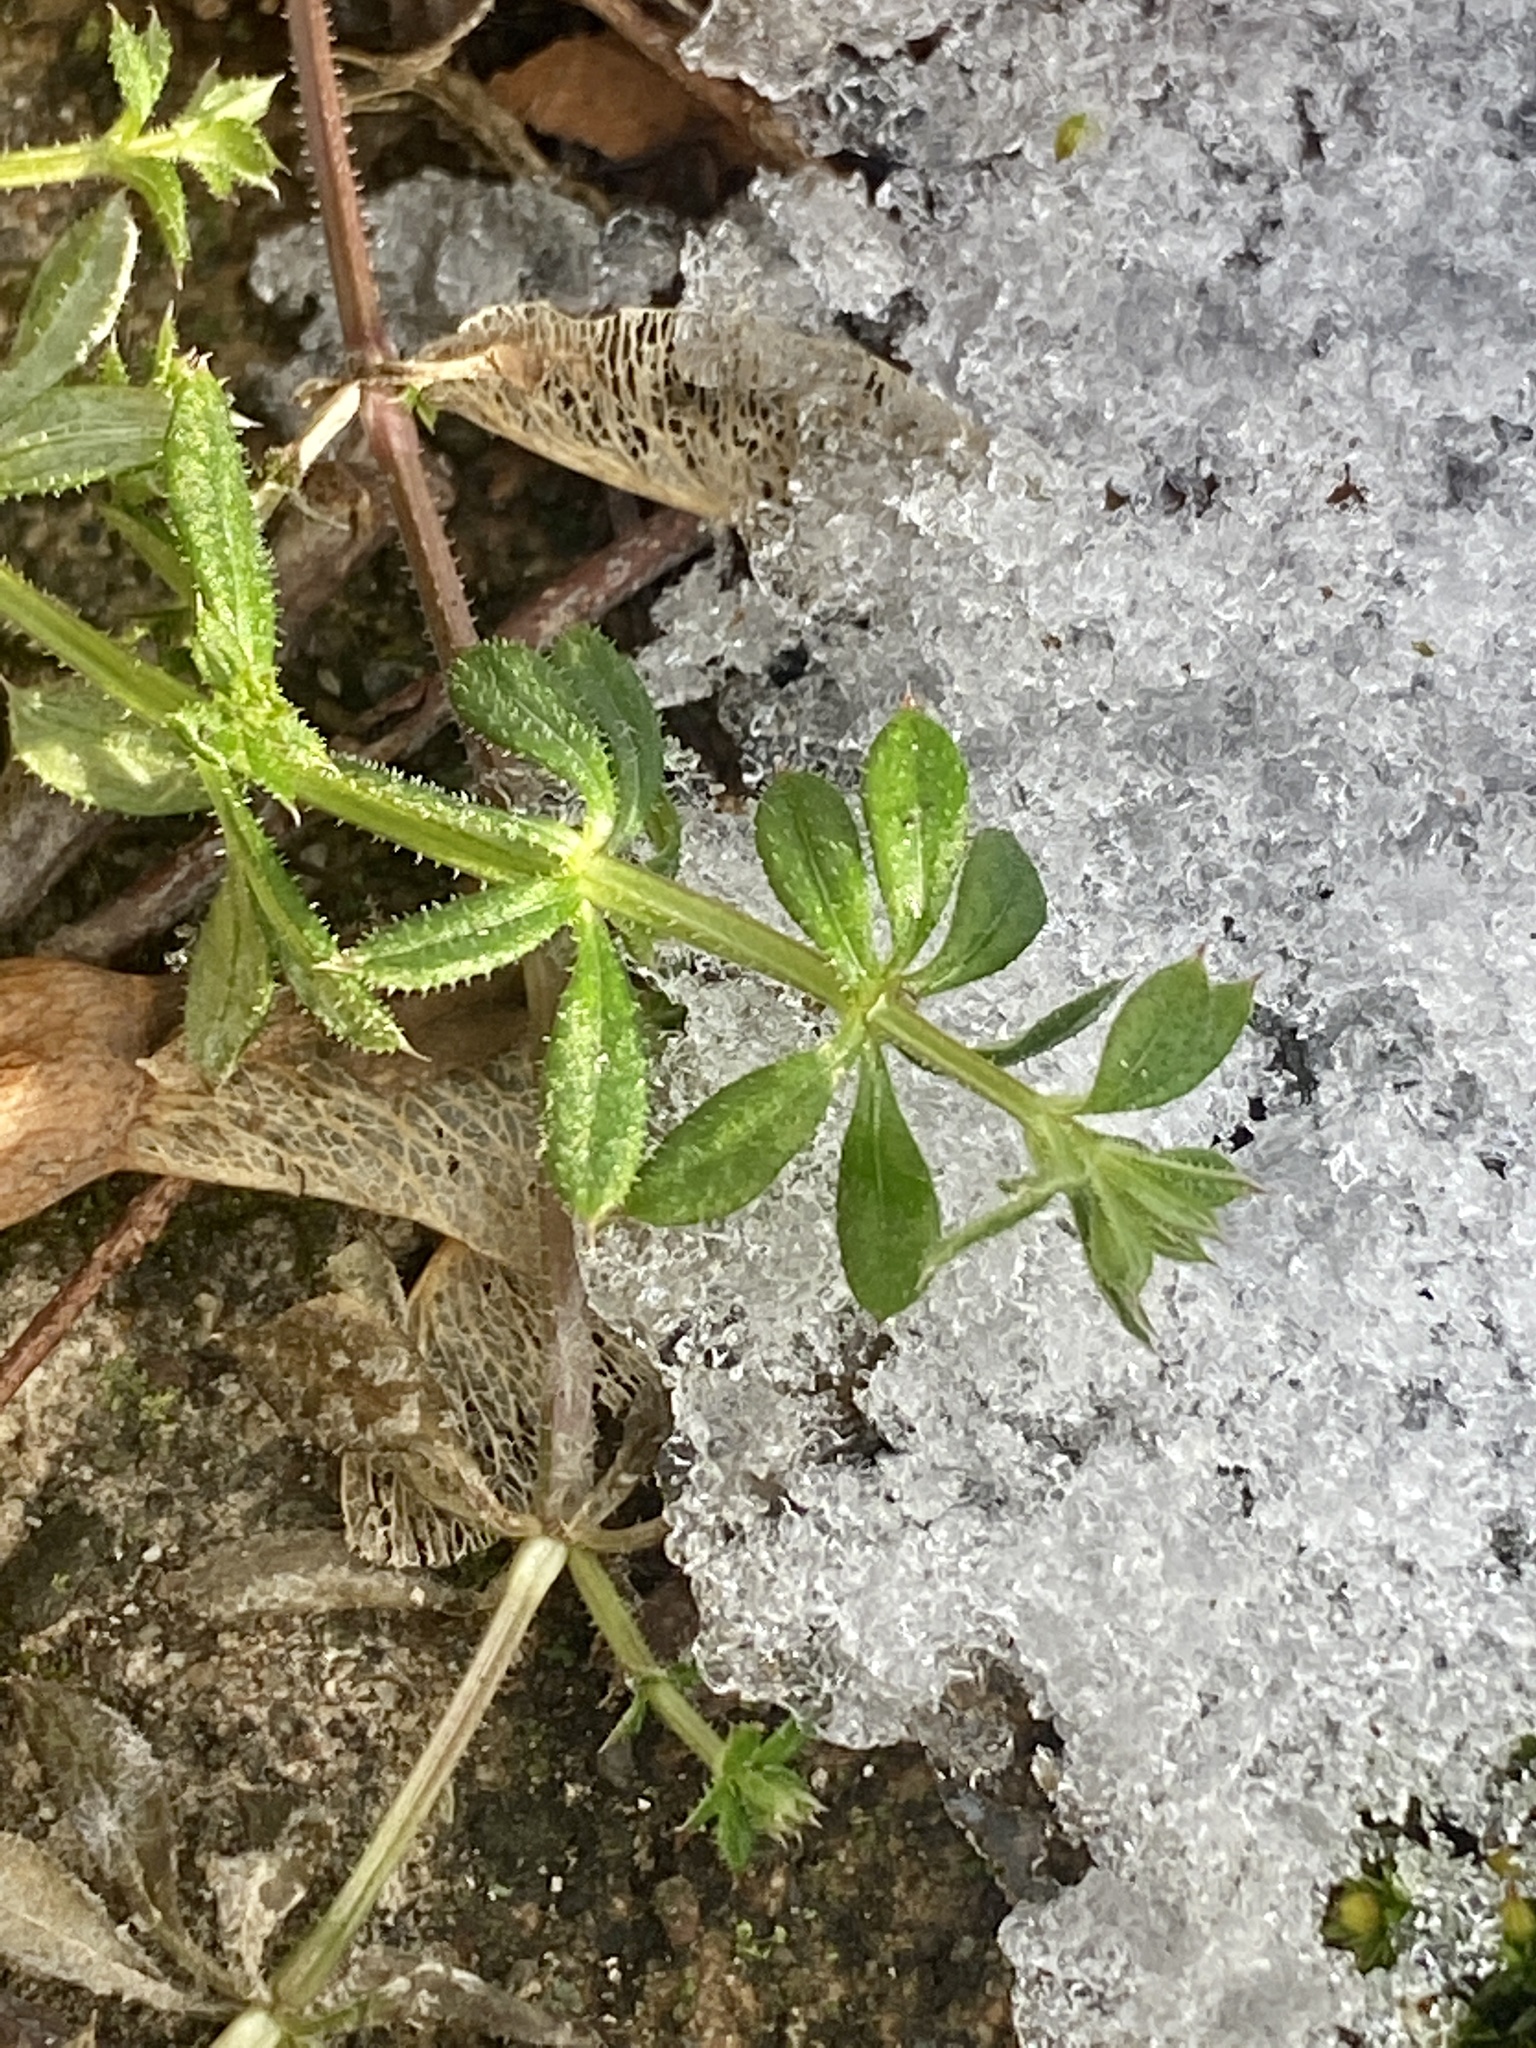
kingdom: Plantae
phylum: Tracheophyta
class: Magnoliopsida
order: Gentianales
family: Rubiaceae
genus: Galium
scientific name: Galium aparine
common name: Cleavers
